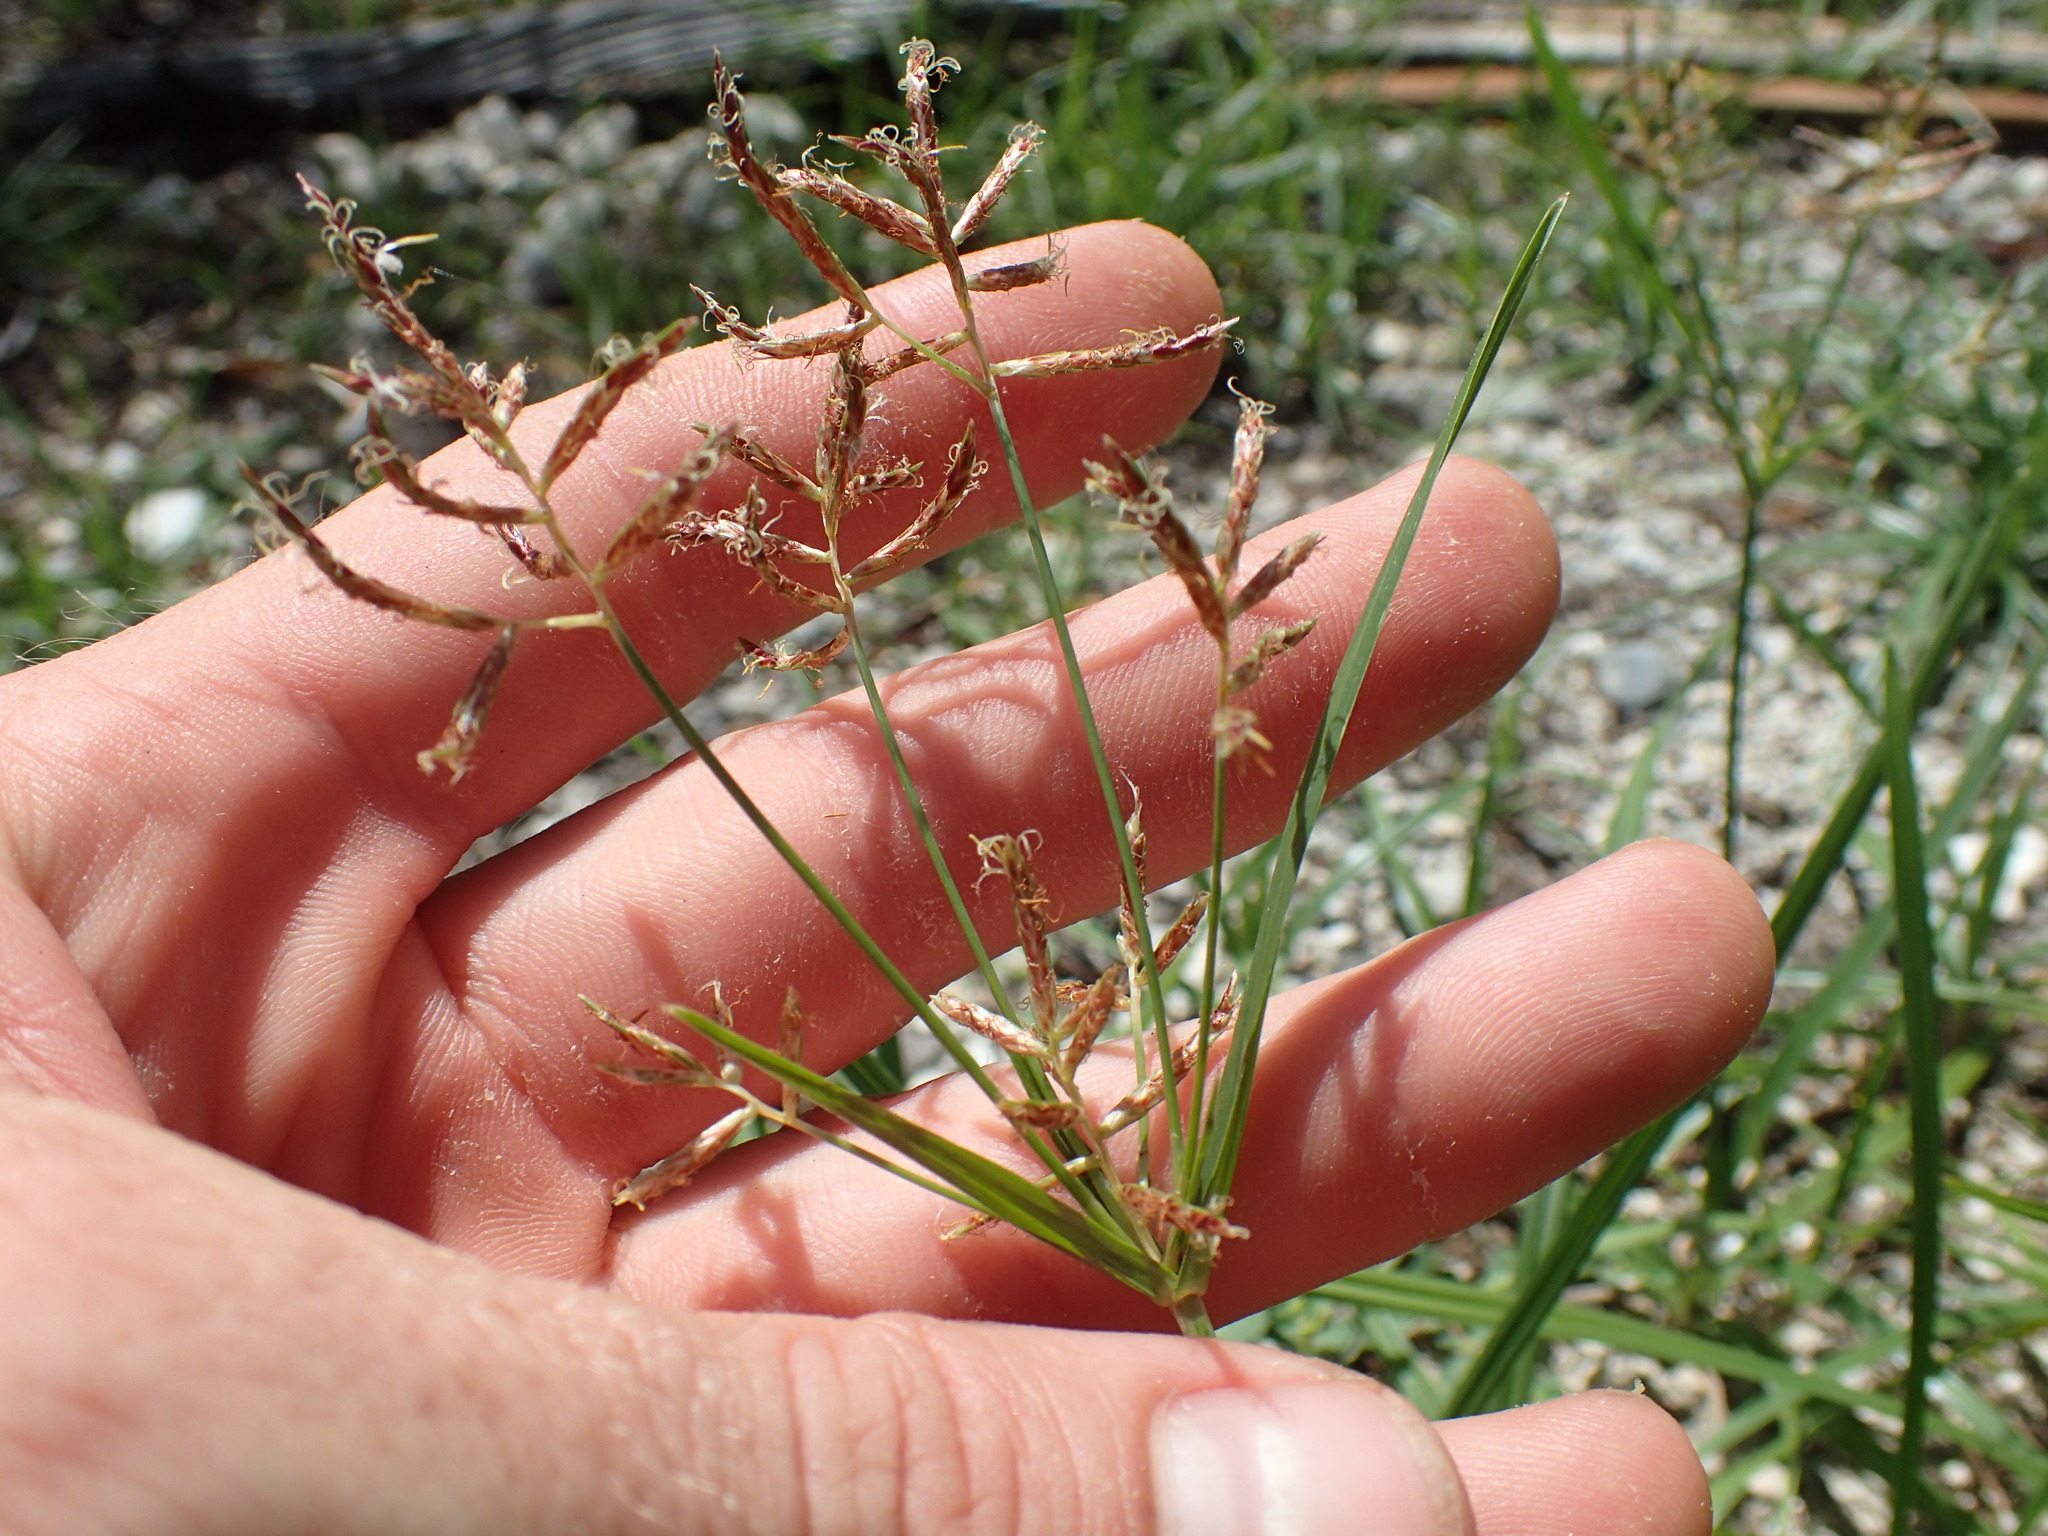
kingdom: Plantae
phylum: Tracheophyta
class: Liliopsida
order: Poales
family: Cyperaceae
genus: Cyperus
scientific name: Cyperus rotundus
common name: Nutgrass
